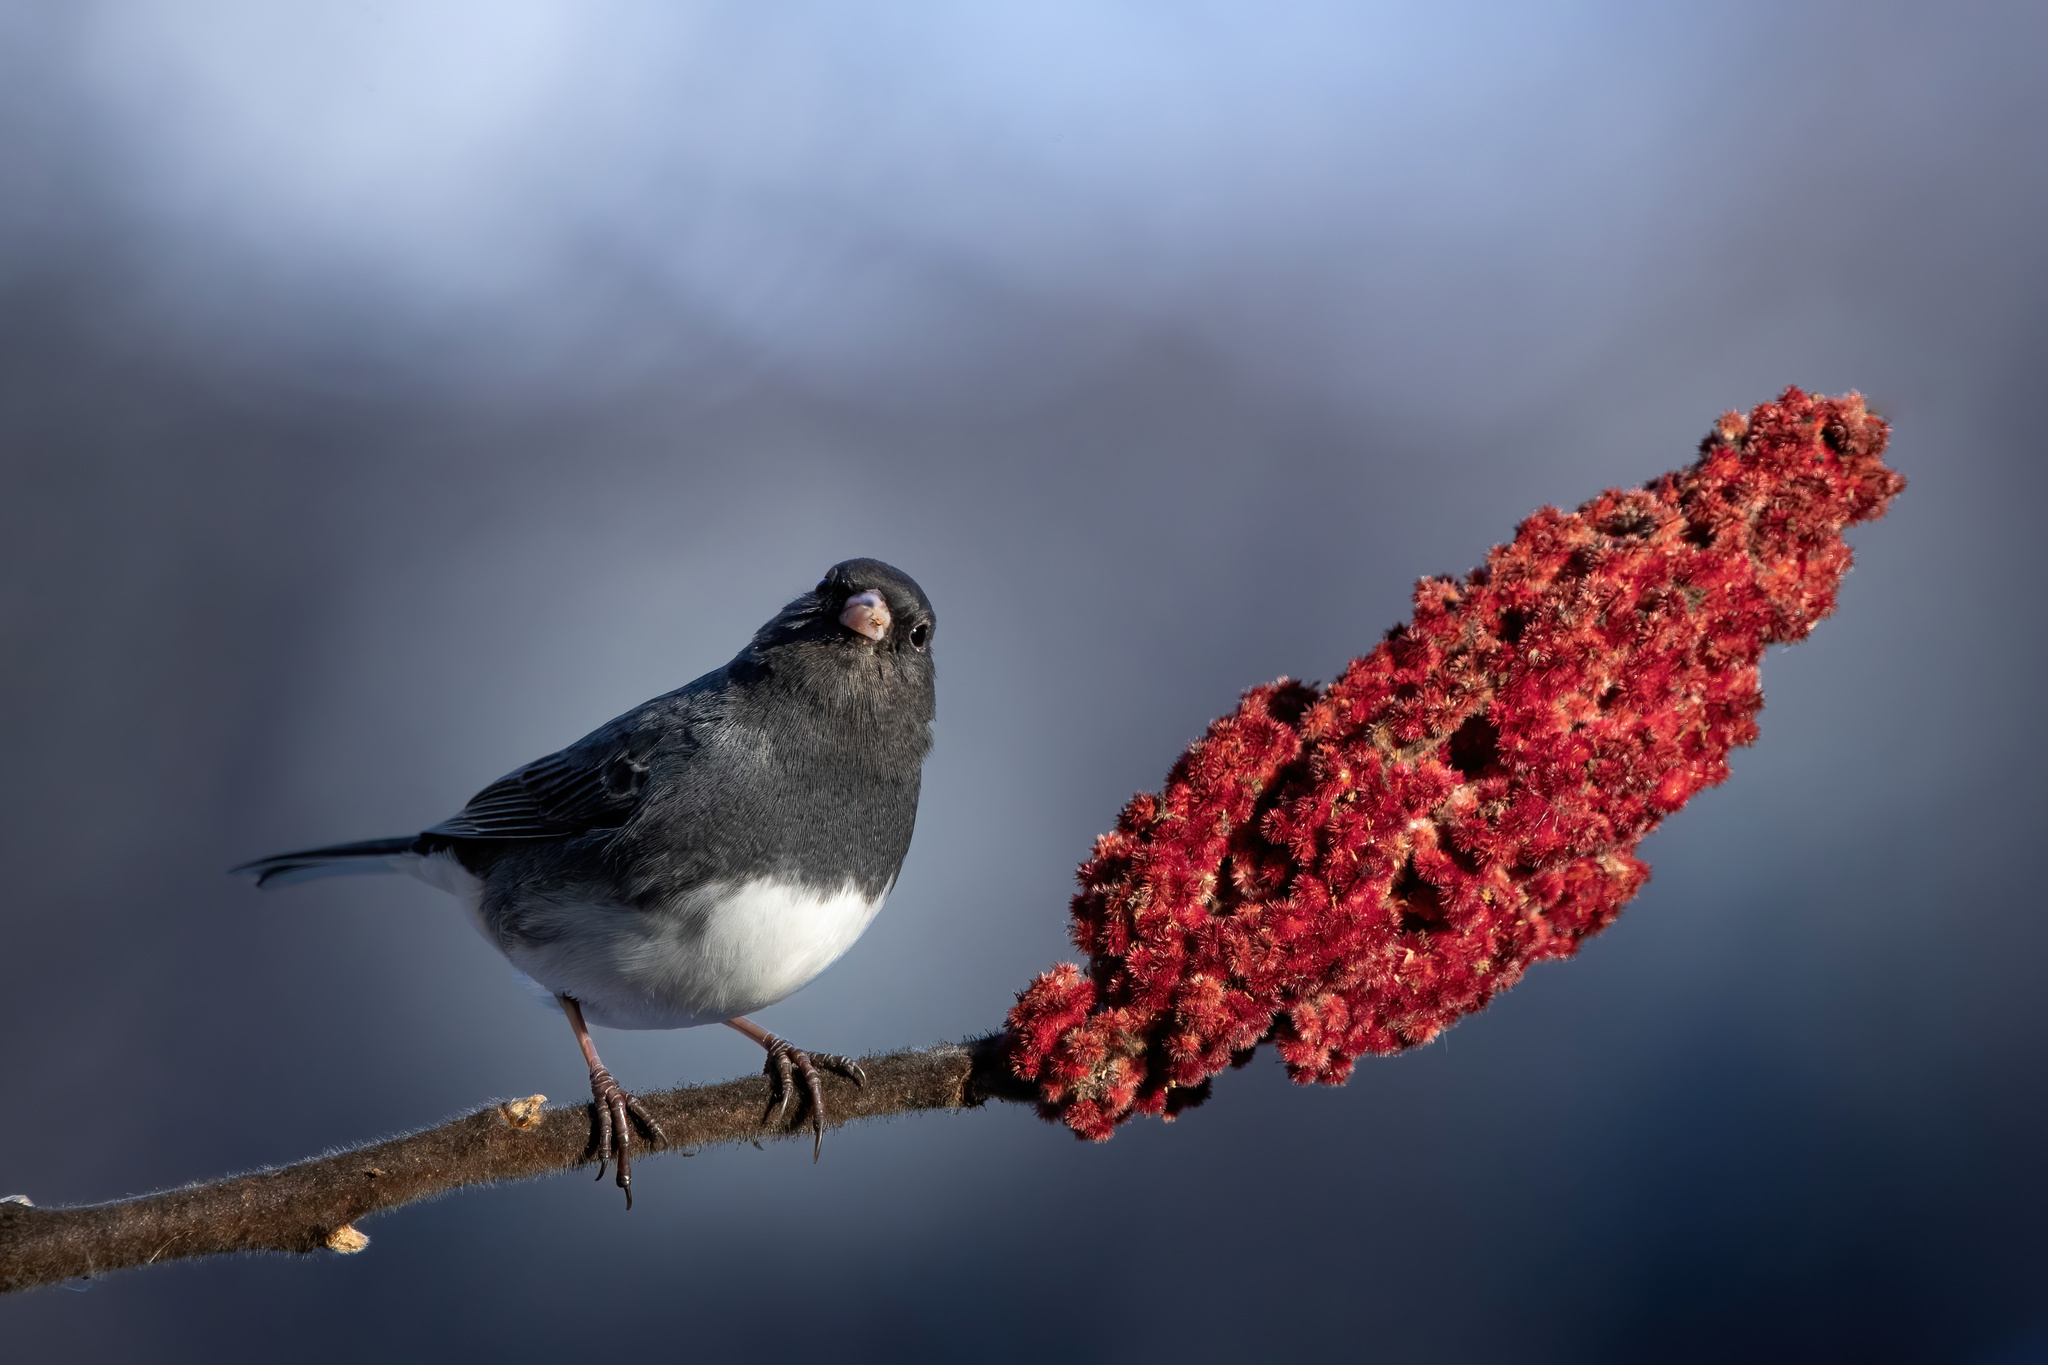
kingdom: Animalia
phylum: Chordata
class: Aves
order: Passeriformes
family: Passerellidae
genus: Junco
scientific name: Junco hyemalis
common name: Dark-eyed junco
